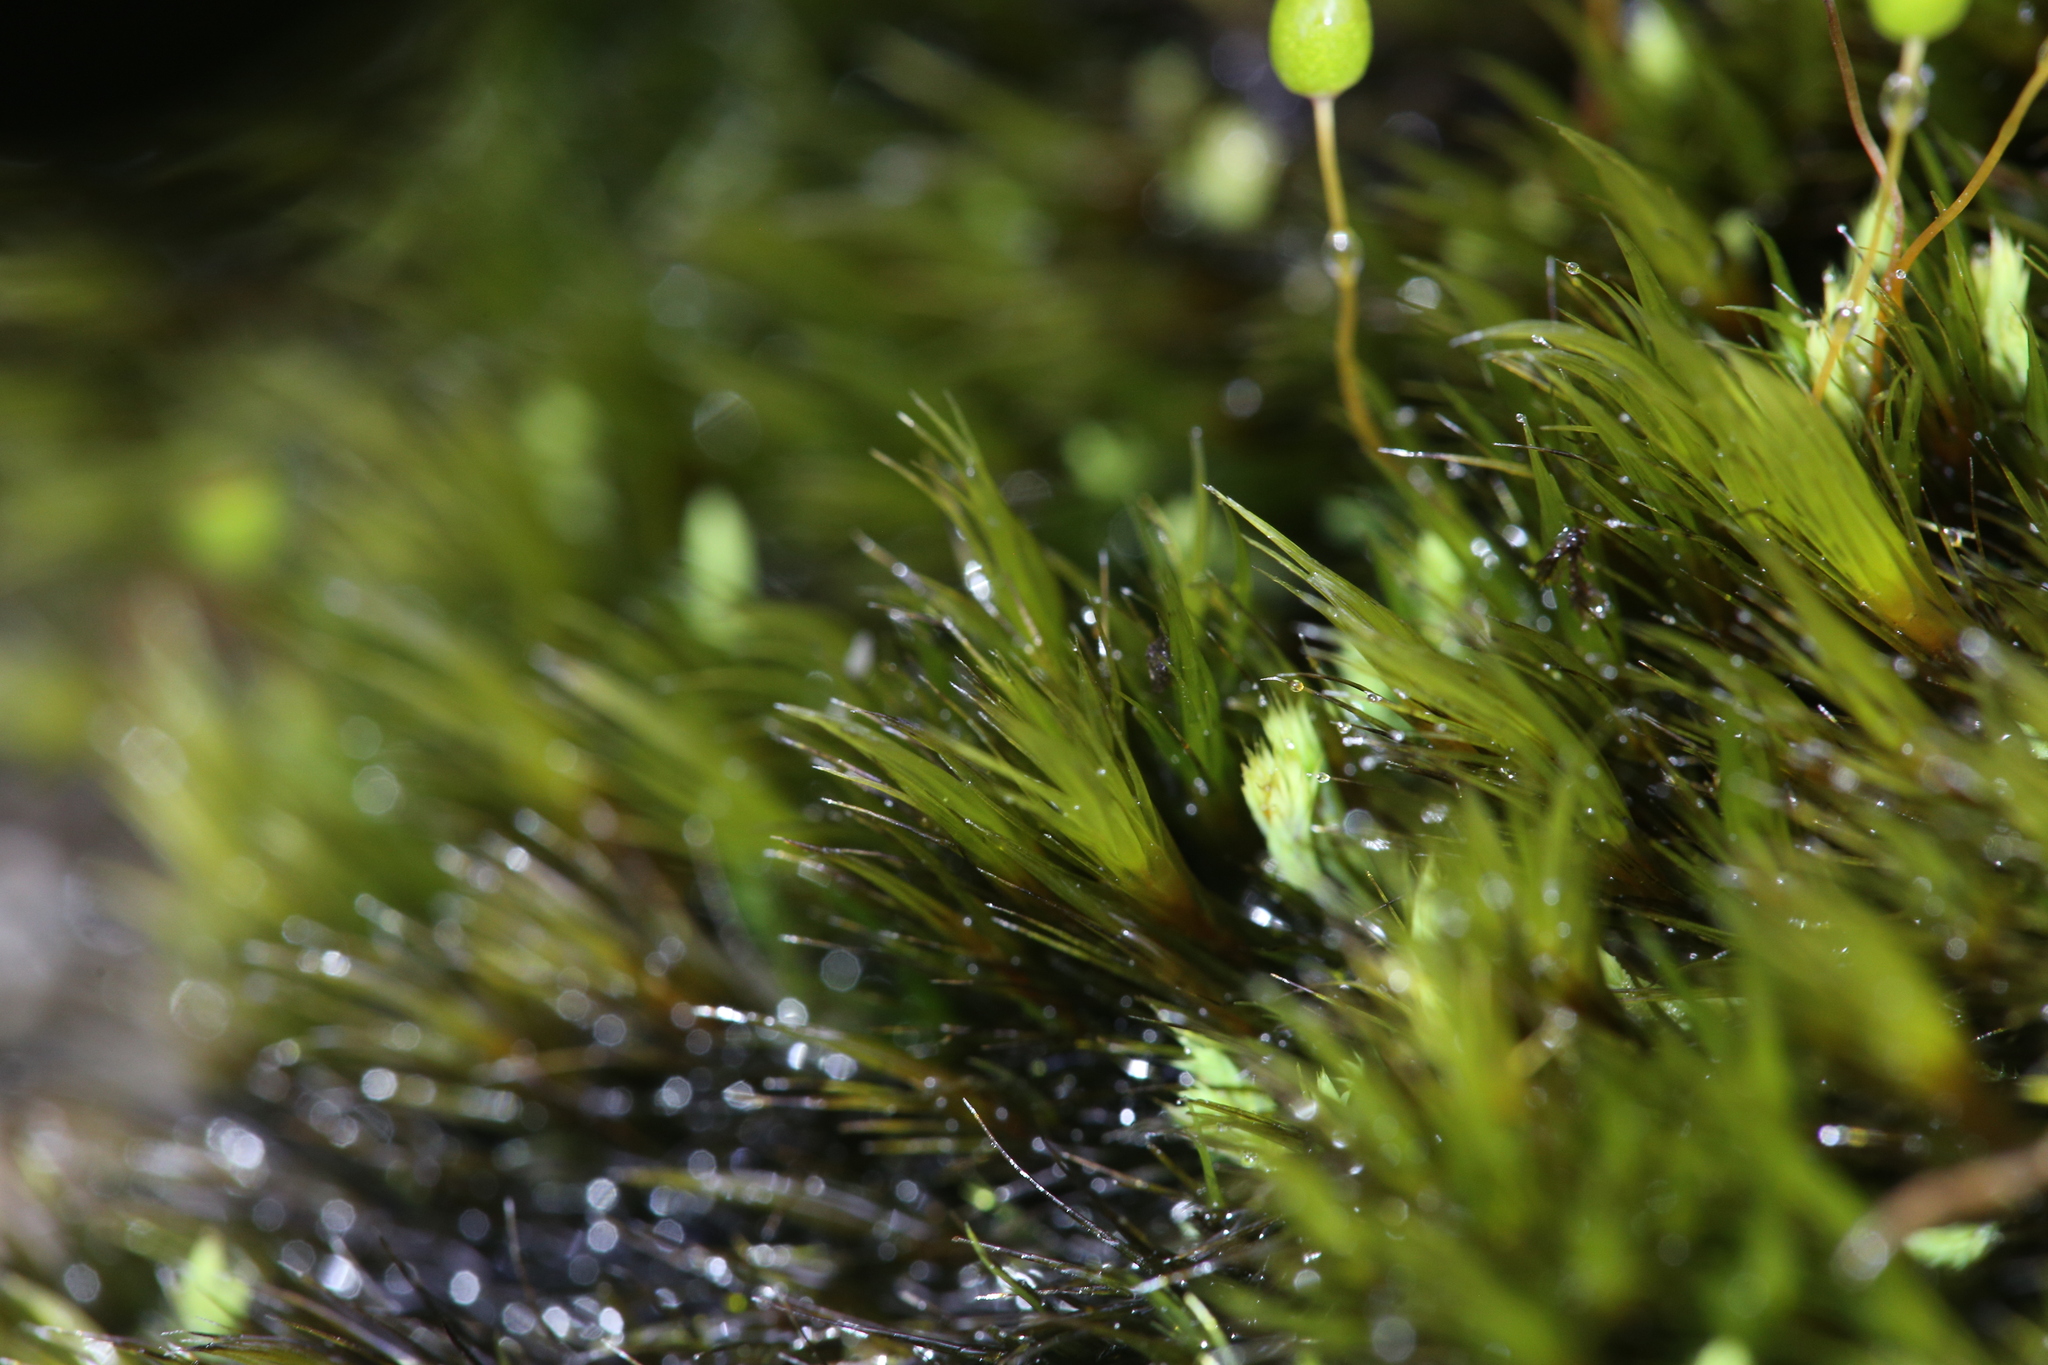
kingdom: Plantae
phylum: Bryophyta
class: Bryopsida
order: Dicranales
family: Leucobryaceae
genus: Campylopus
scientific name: Campylopus clavatus
